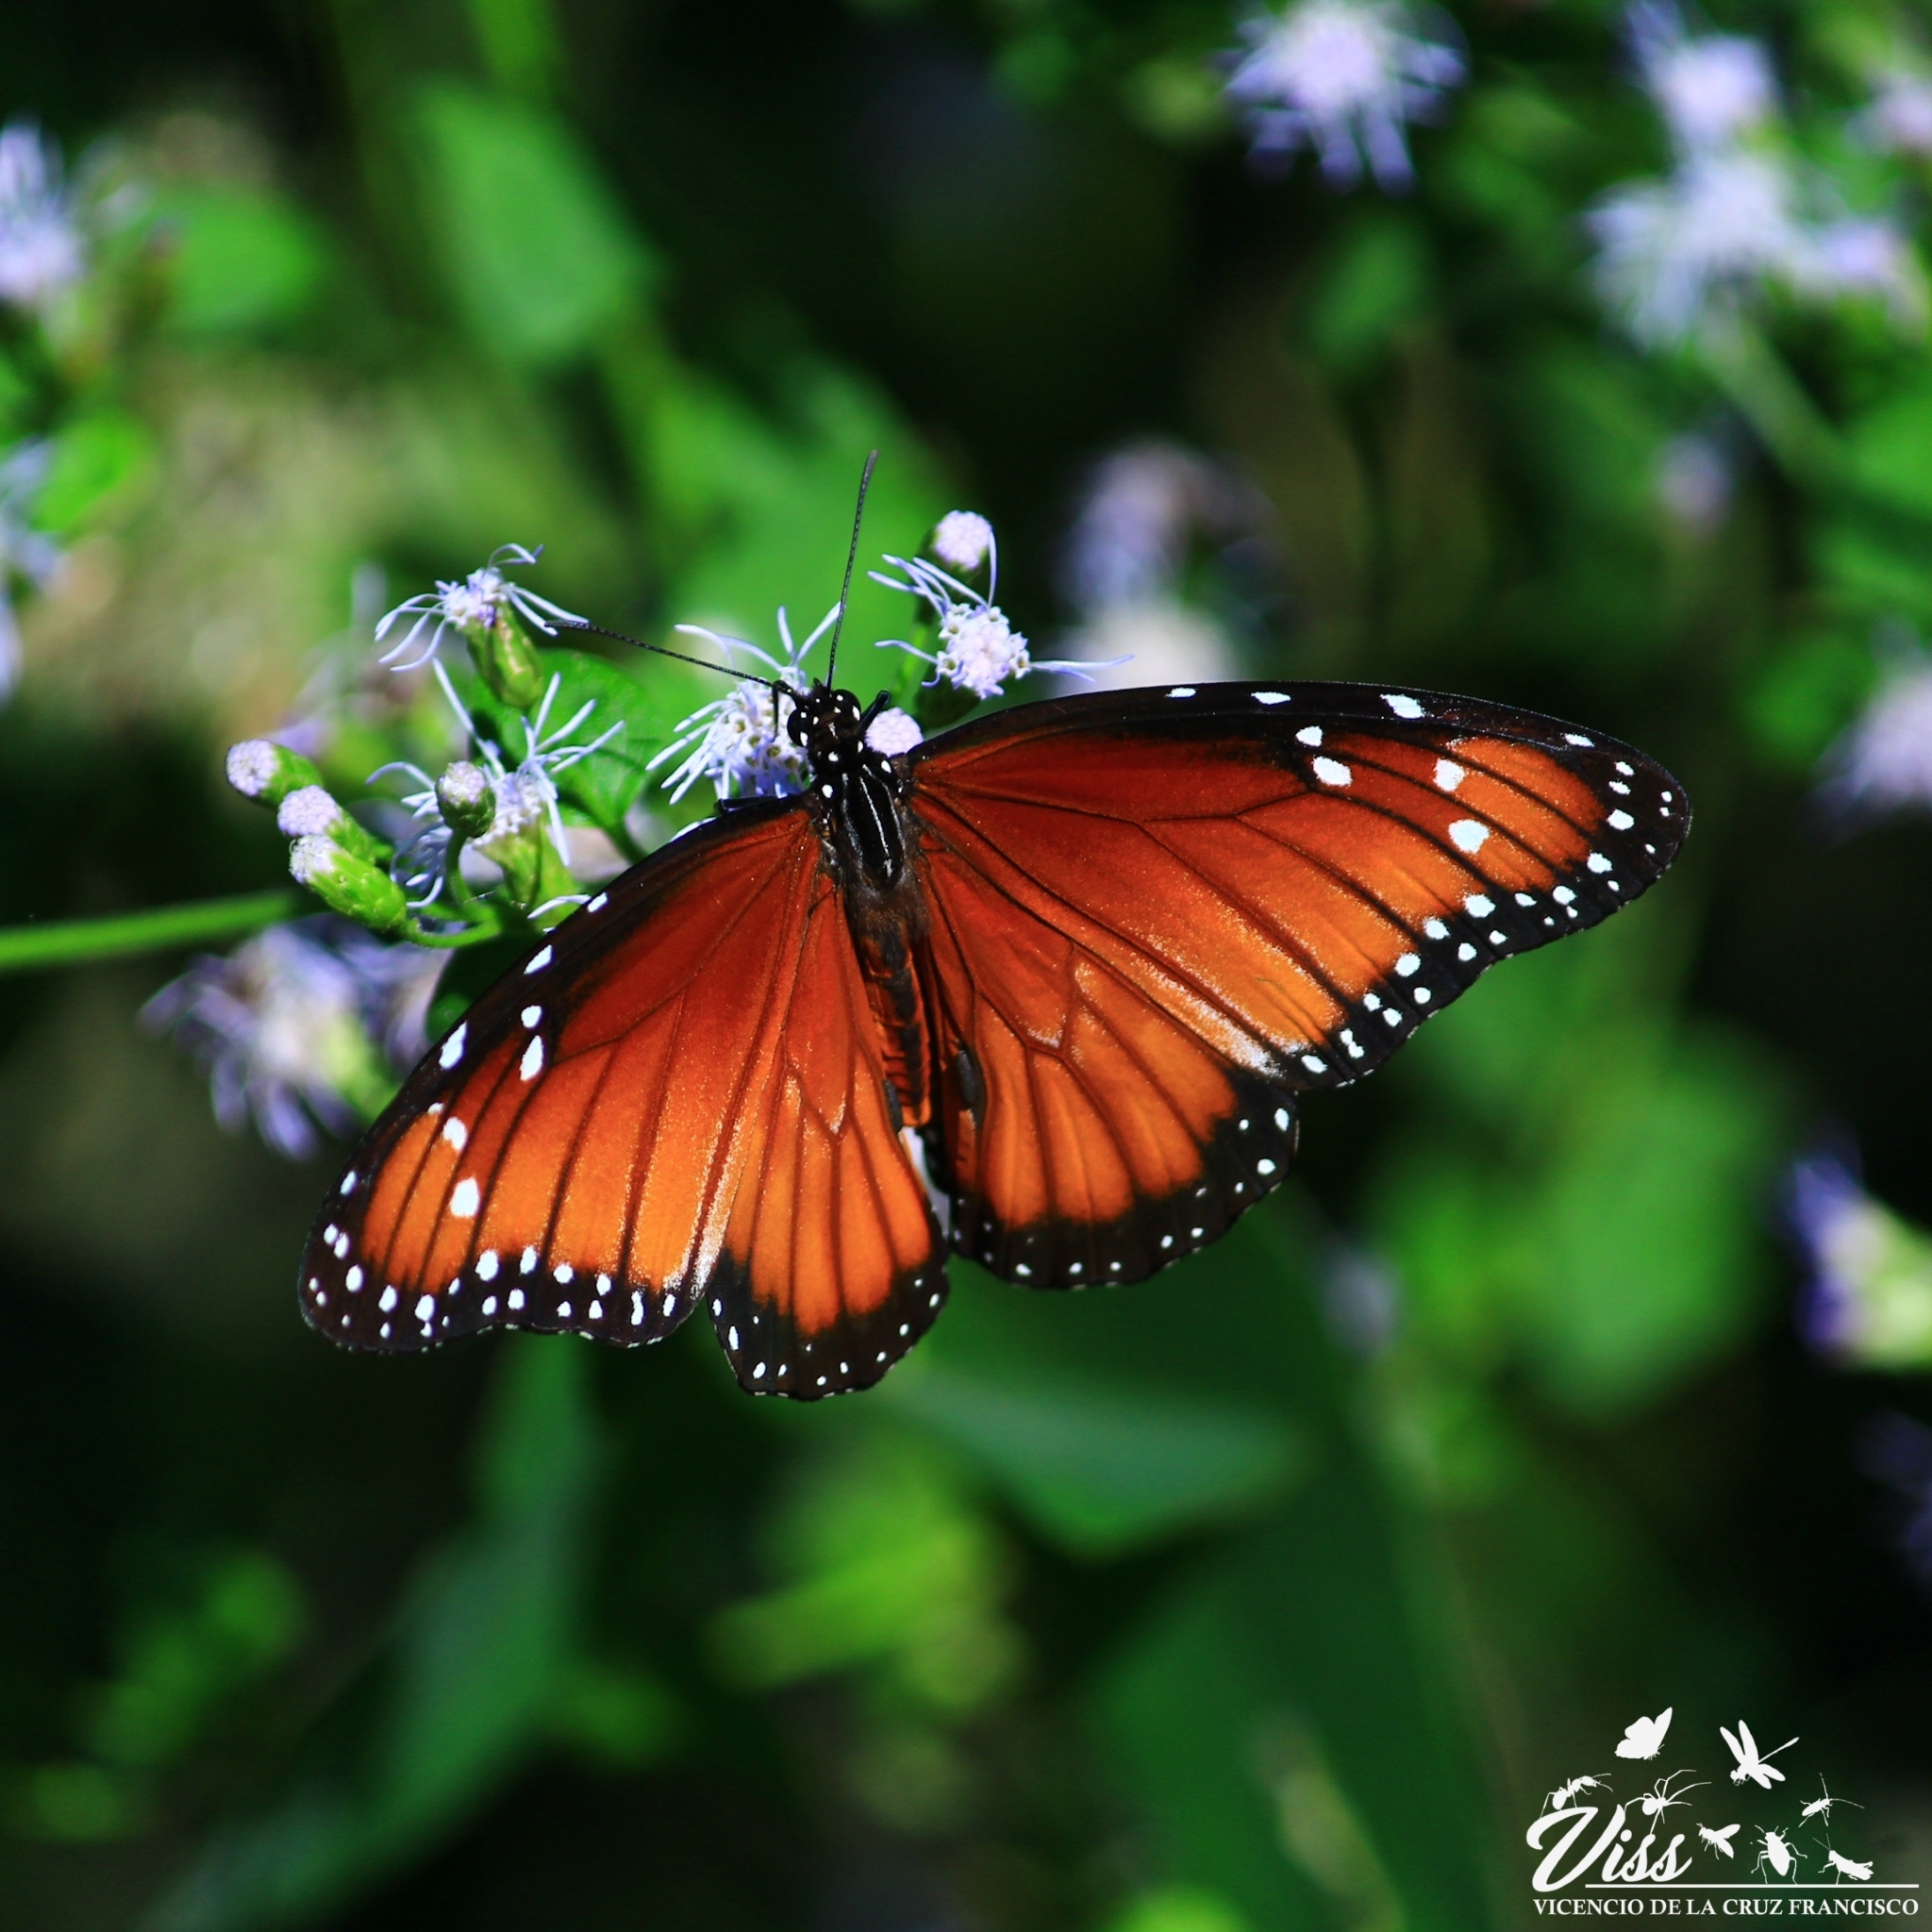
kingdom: Animalia
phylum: Arthropoda
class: Insecta
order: Lepidoptera
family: Nymphalidae
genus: Danaus
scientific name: Danaus eresimus
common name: Soldier
